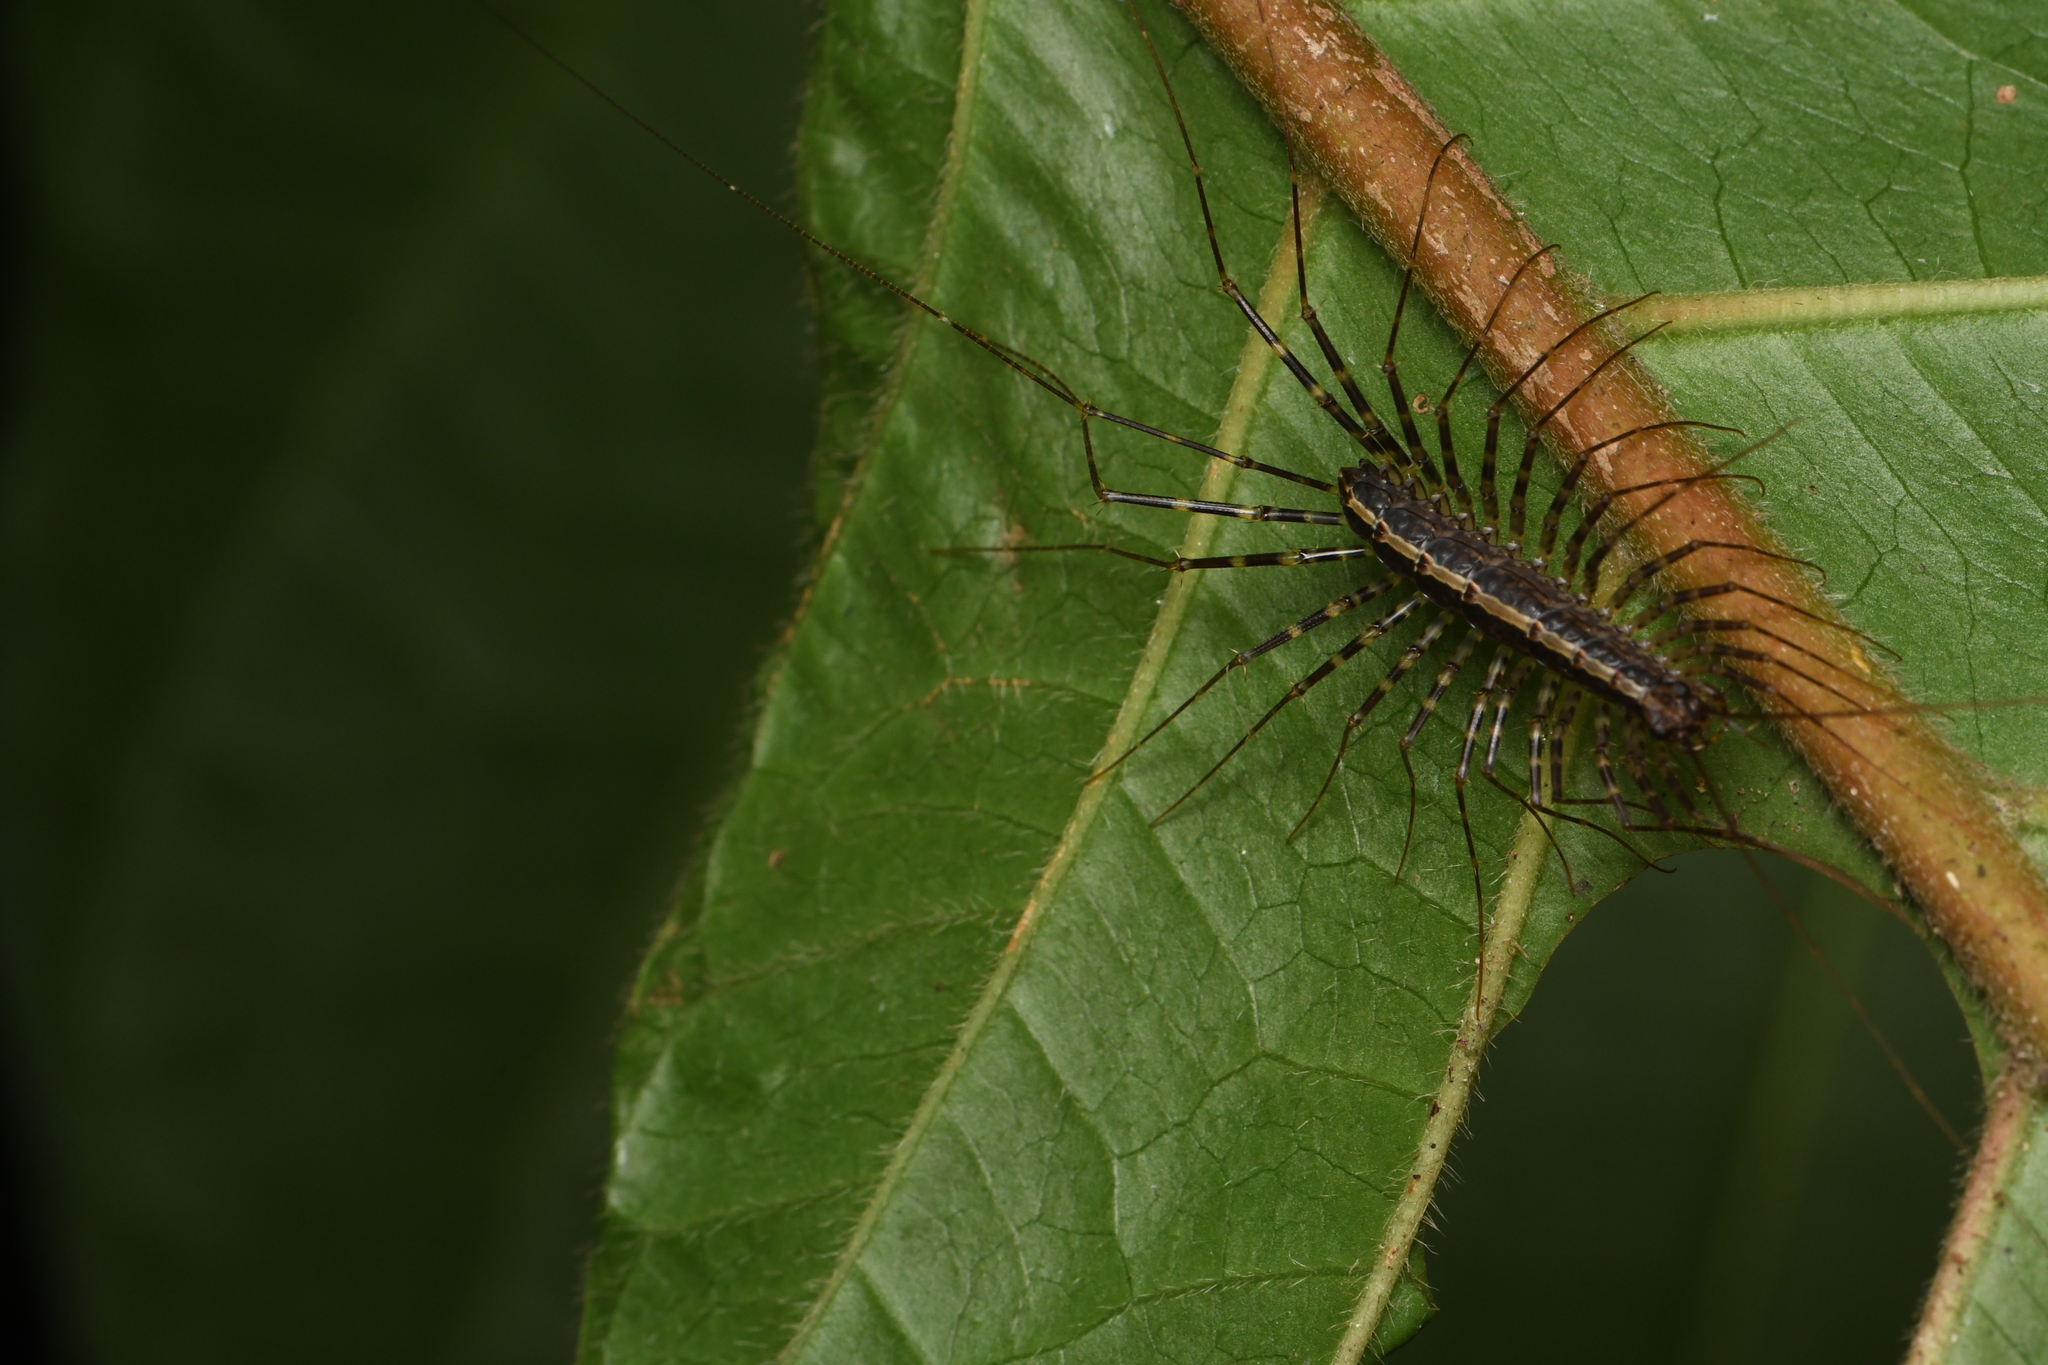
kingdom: Animalia
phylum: Arthropoda
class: Chilopoda
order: Scutigeromorpha
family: Pselliodidae
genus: Sphendononema
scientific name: Sphendononema guildingii
